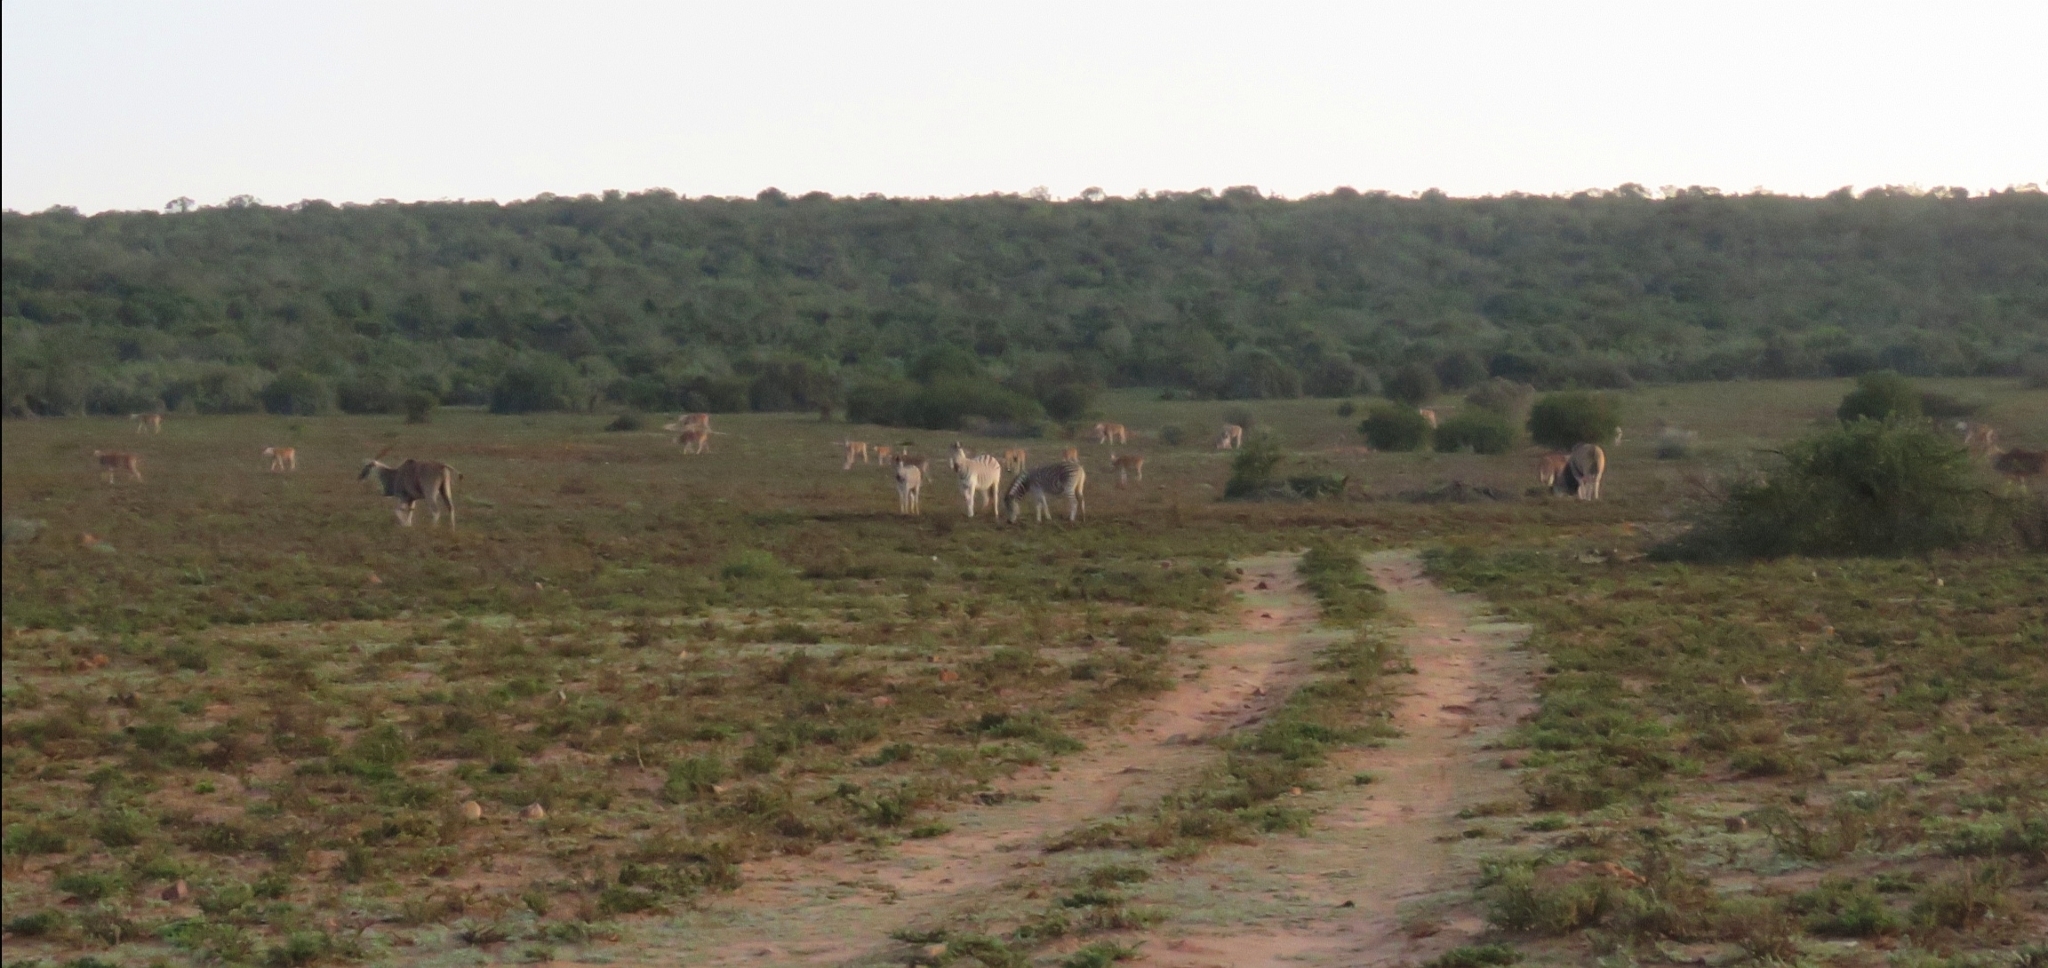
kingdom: Animalia
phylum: Chordata
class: Mammalia
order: Perissodactyla
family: Equidae
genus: Equus
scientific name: Equus quagga
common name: Plains zebra
